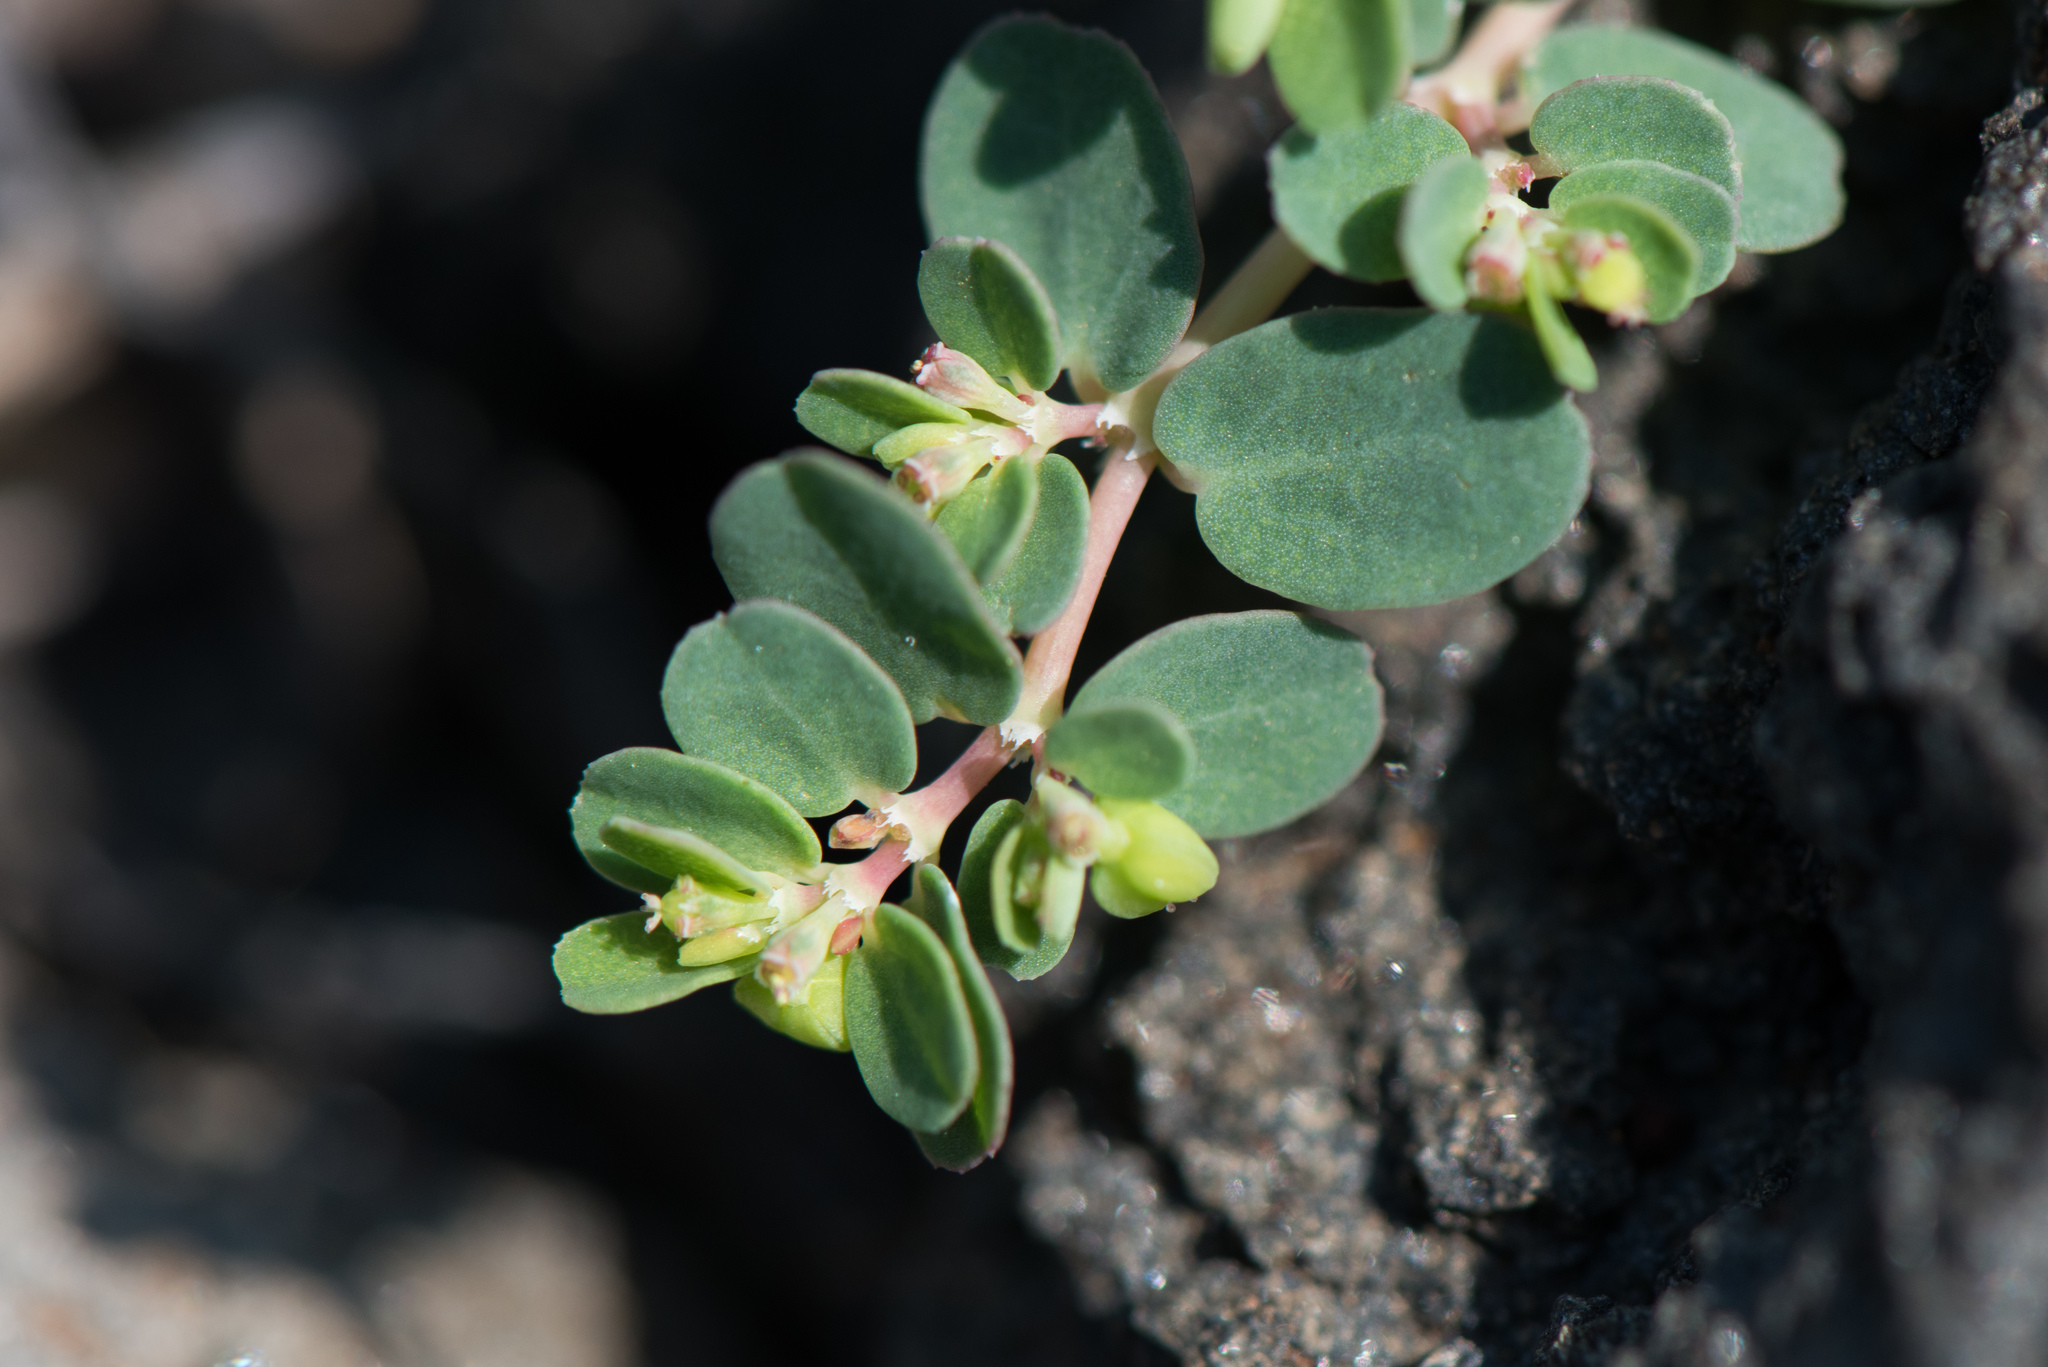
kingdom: Plantae
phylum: Tracheophyta
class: Magnoliopsida
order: Malpighiales
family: Euphorbiaceae
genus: Euphorbia
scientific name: Euphorbia taihsiensis
